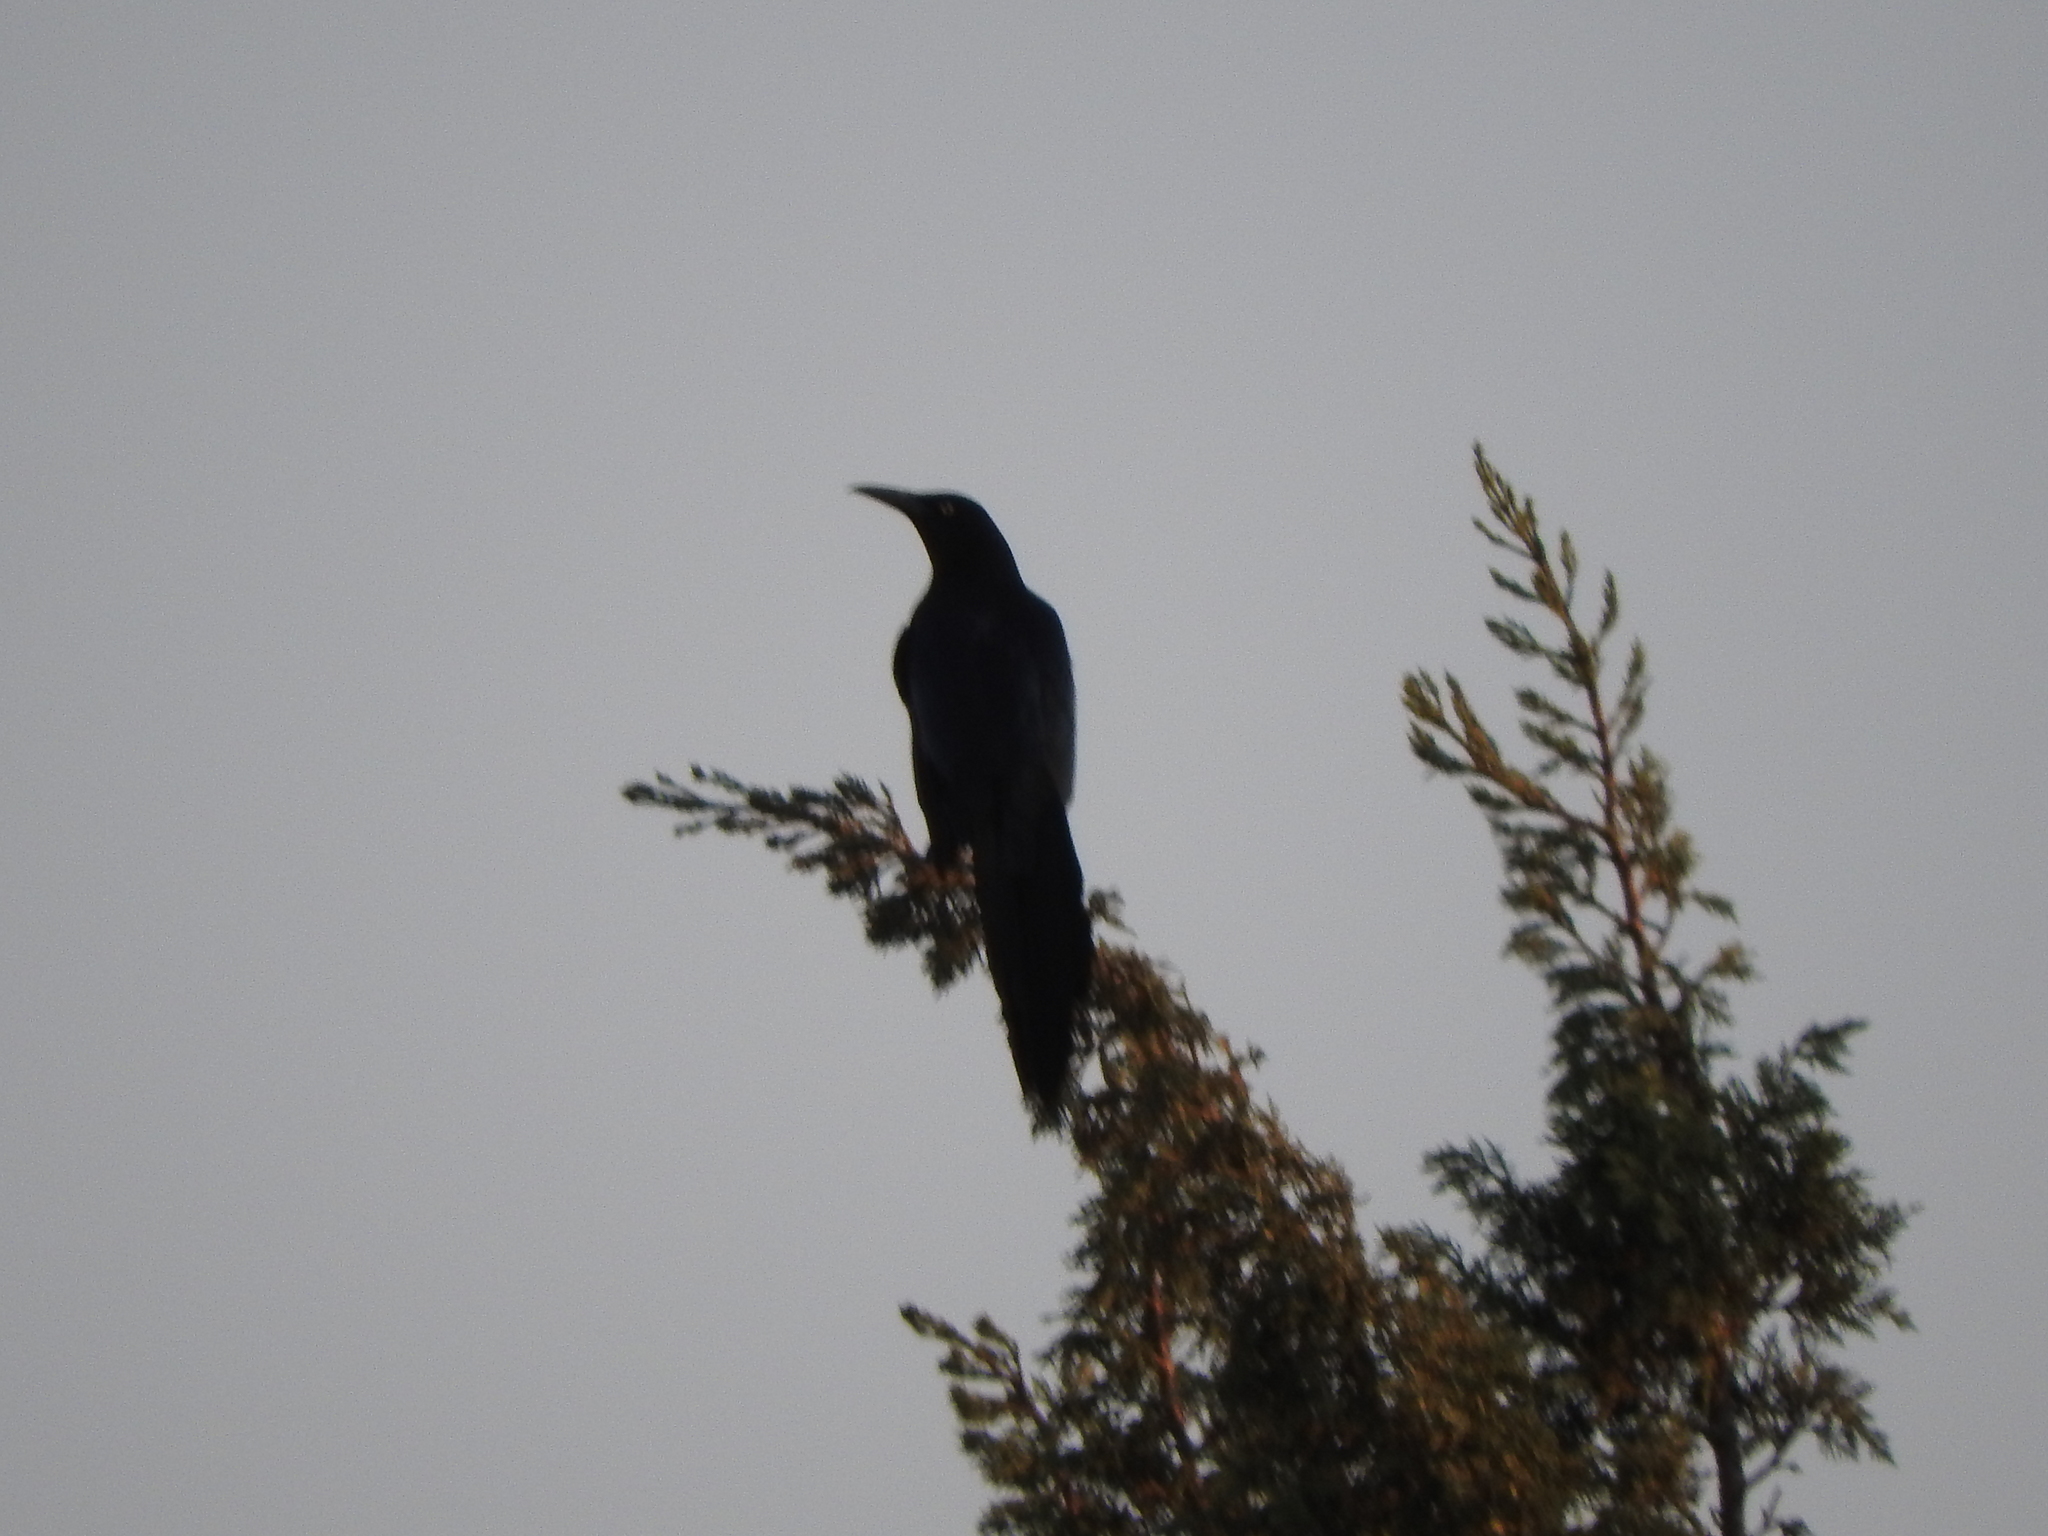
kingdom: Animalia
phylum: Chordata
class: Aves
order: Passeriformes
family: Icteridae
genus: Quiscalus
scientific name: Quiscalus mexicanus
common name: Great-tailed grackle
